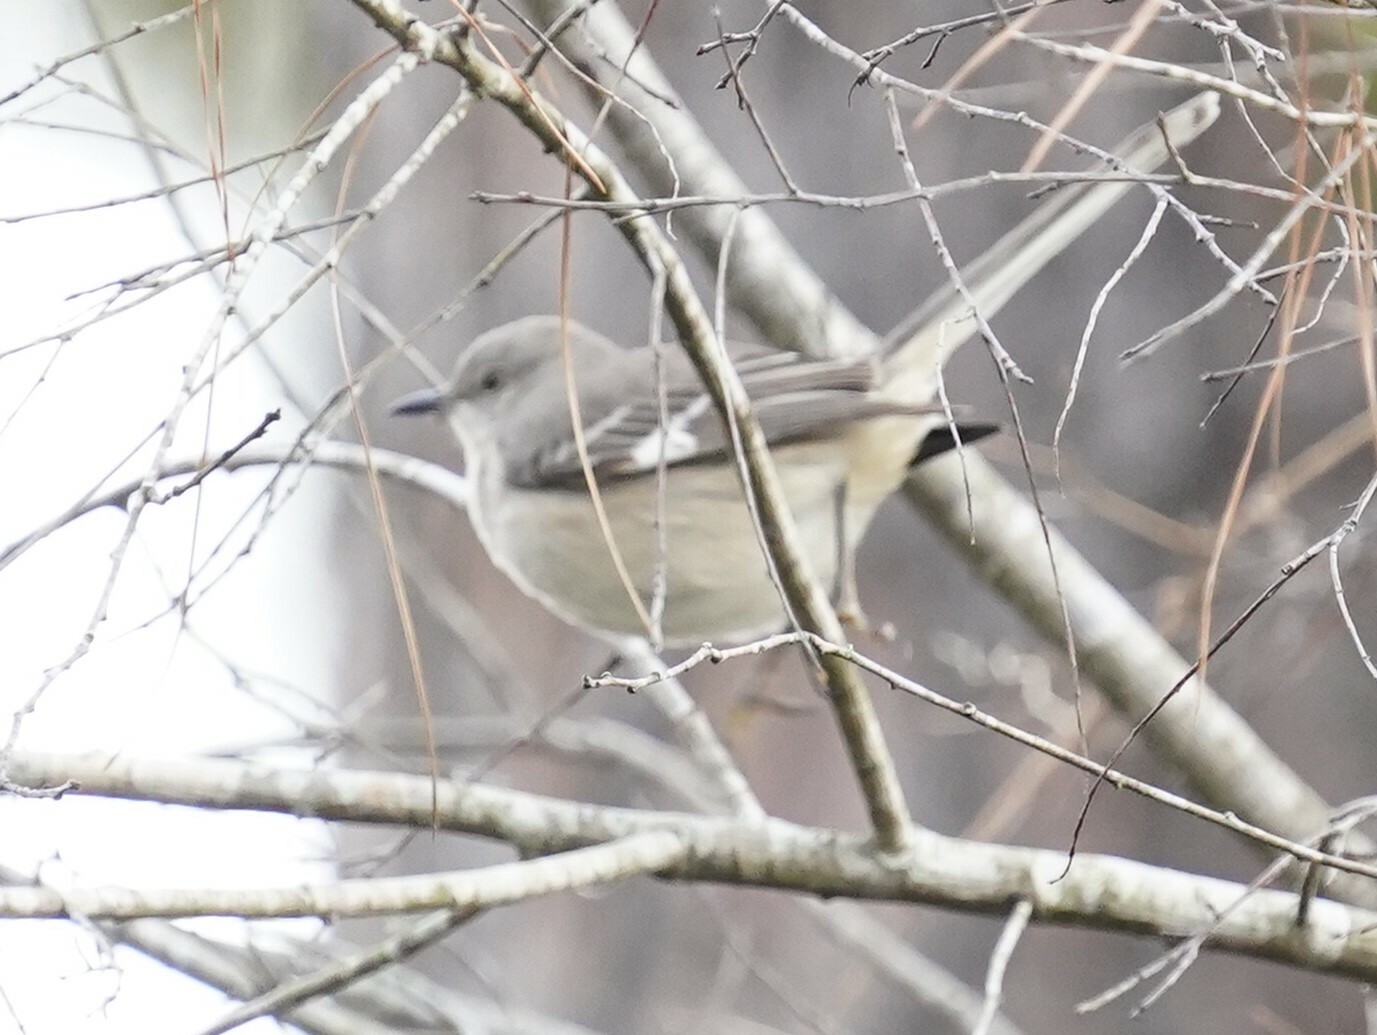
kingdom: Animalia
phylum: Chordata
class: Aves
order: Passeriformes
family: Mimidae
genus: Mimus
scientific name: Mimus polyglottos
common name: Northern mockingbird
